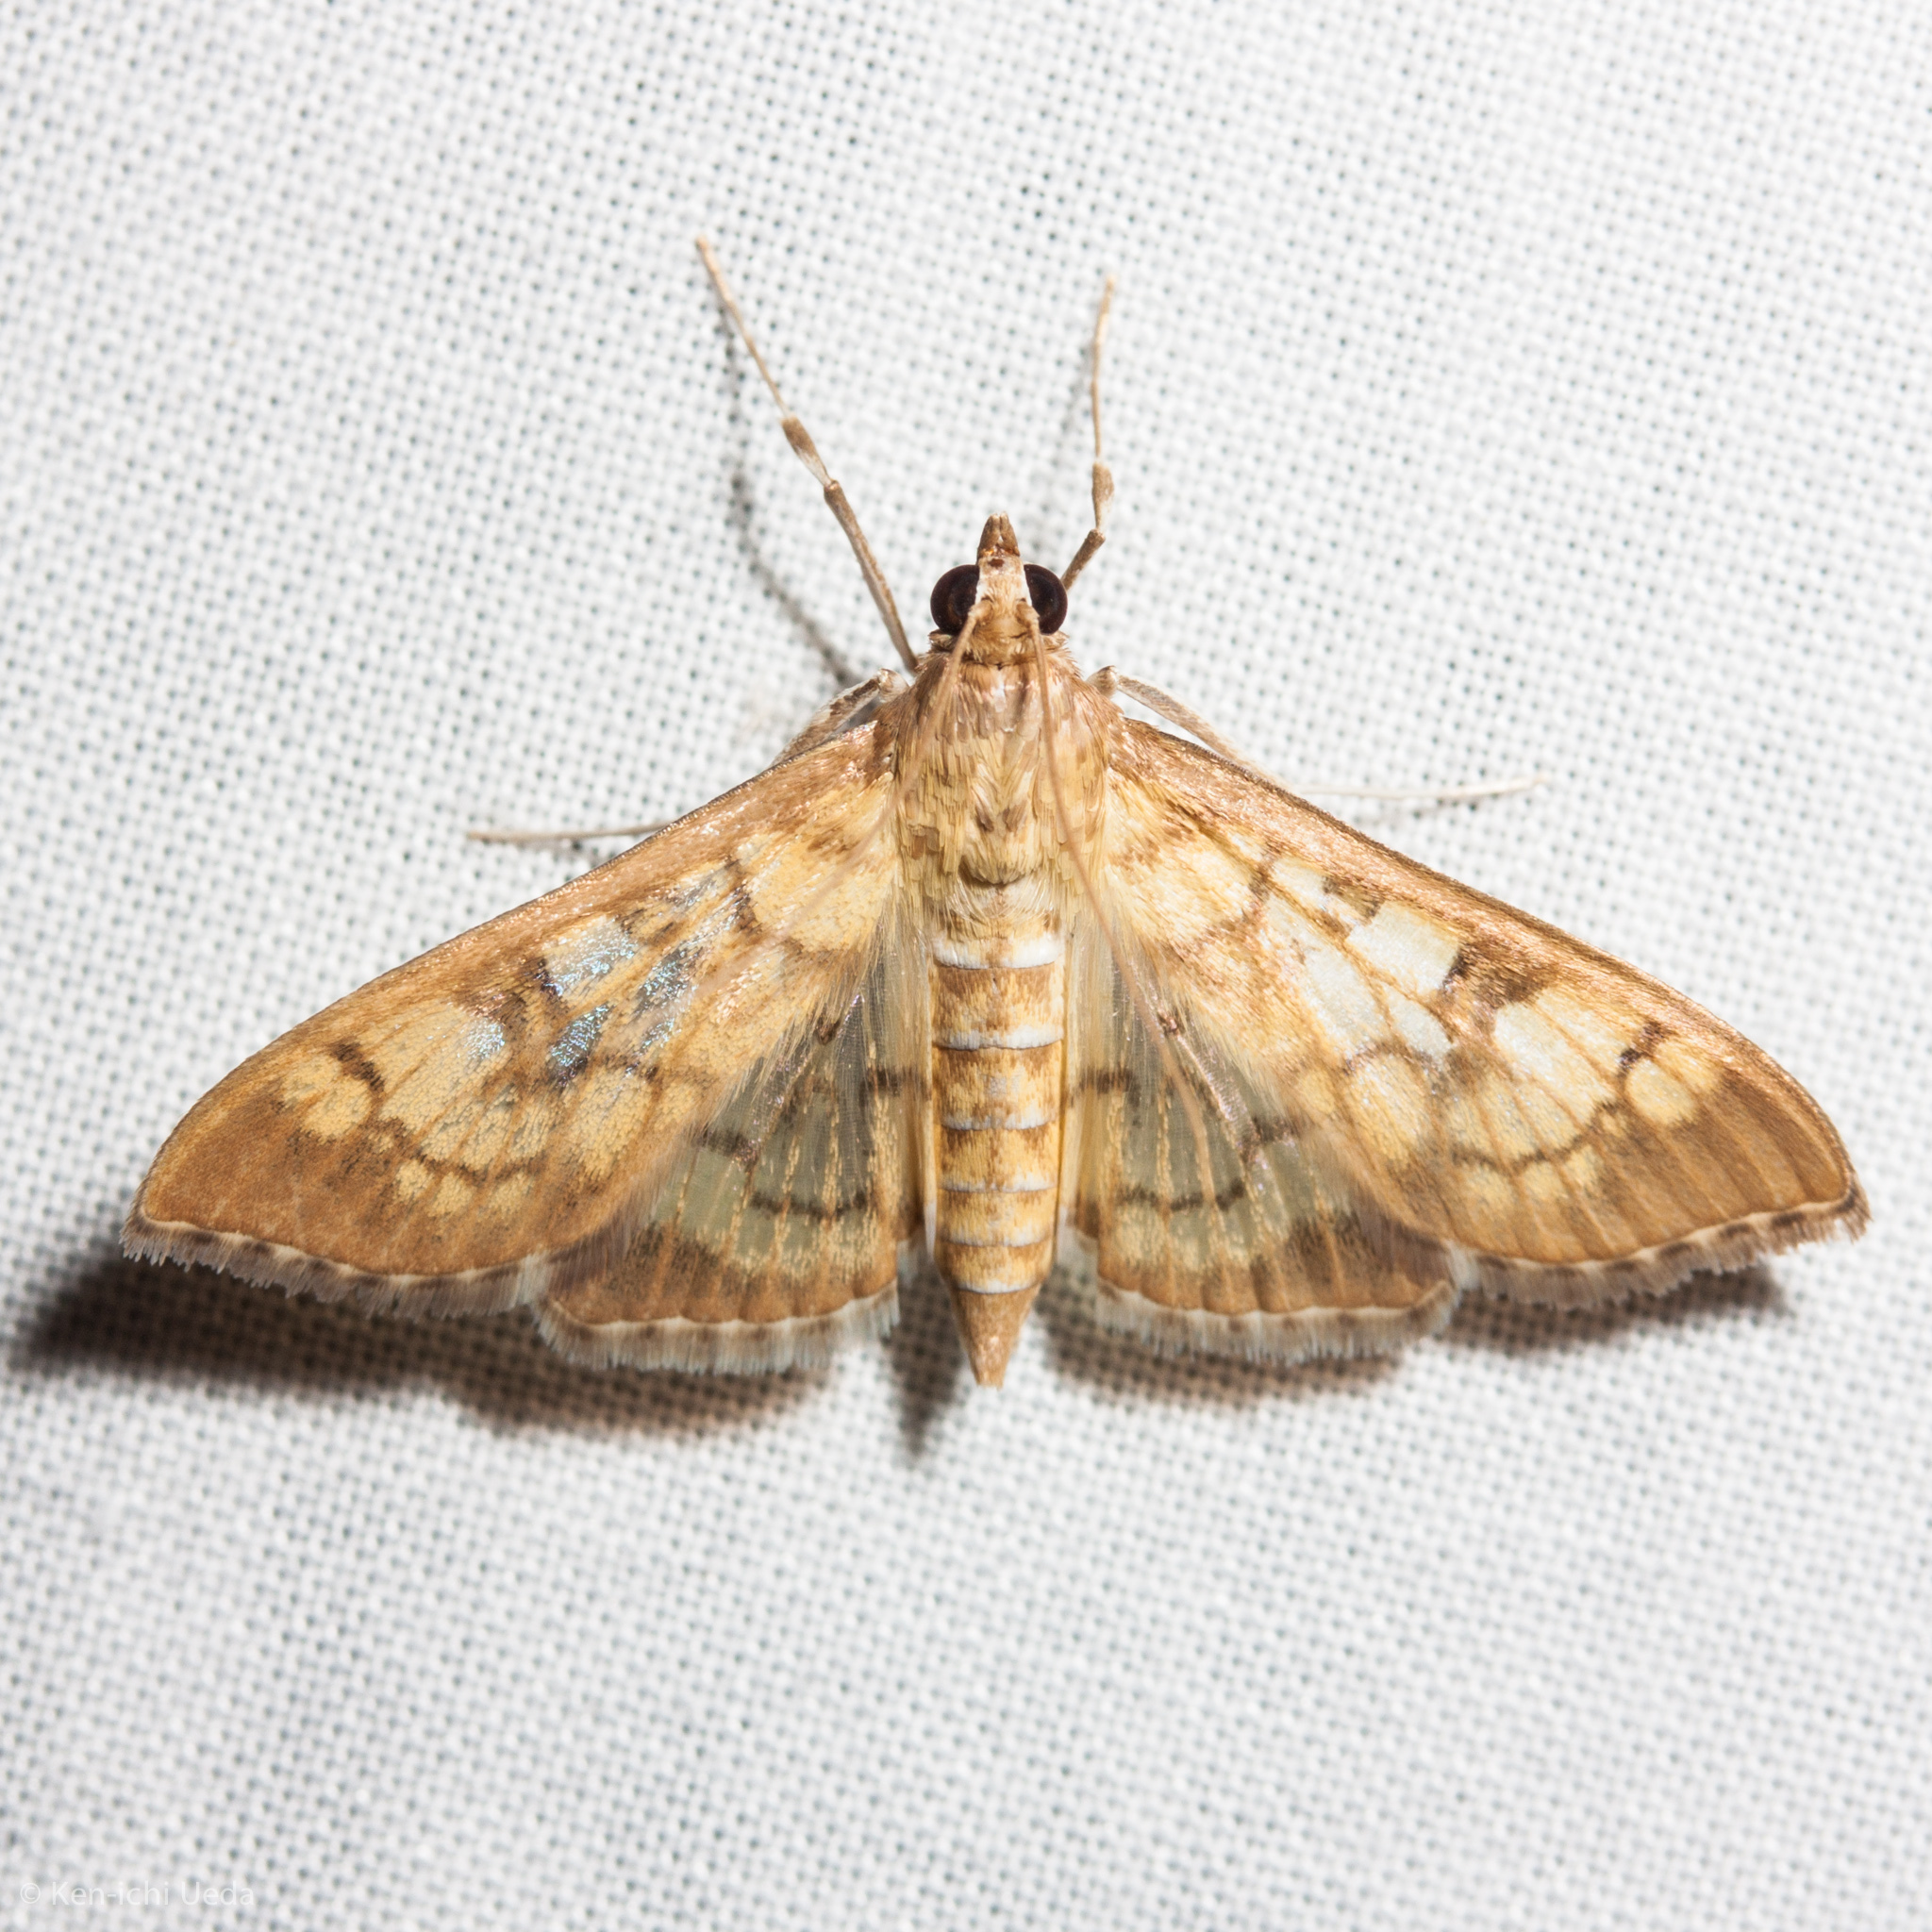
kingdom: Animalia
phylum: Arthropoda
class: Insecta
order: Lepidoptera
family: Crambidae
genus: Mimorista
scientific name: Mimorista subcostalis
